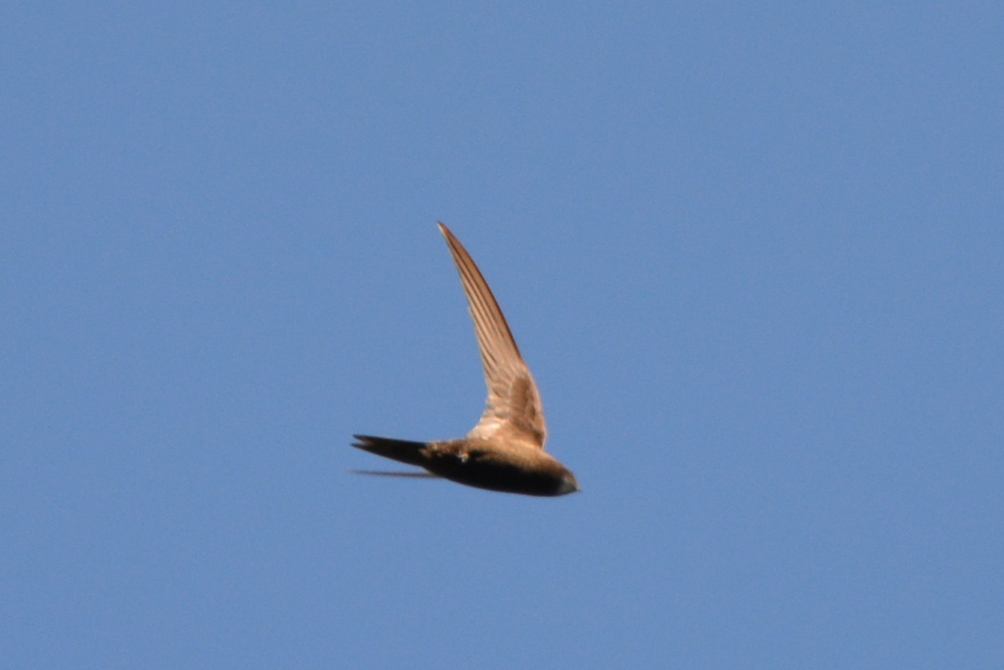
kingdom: Animalia
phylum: Chordata
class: Aves
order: Apodiformes
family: Apodidae
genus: Apus
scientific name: Apus apus
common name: Common swift
